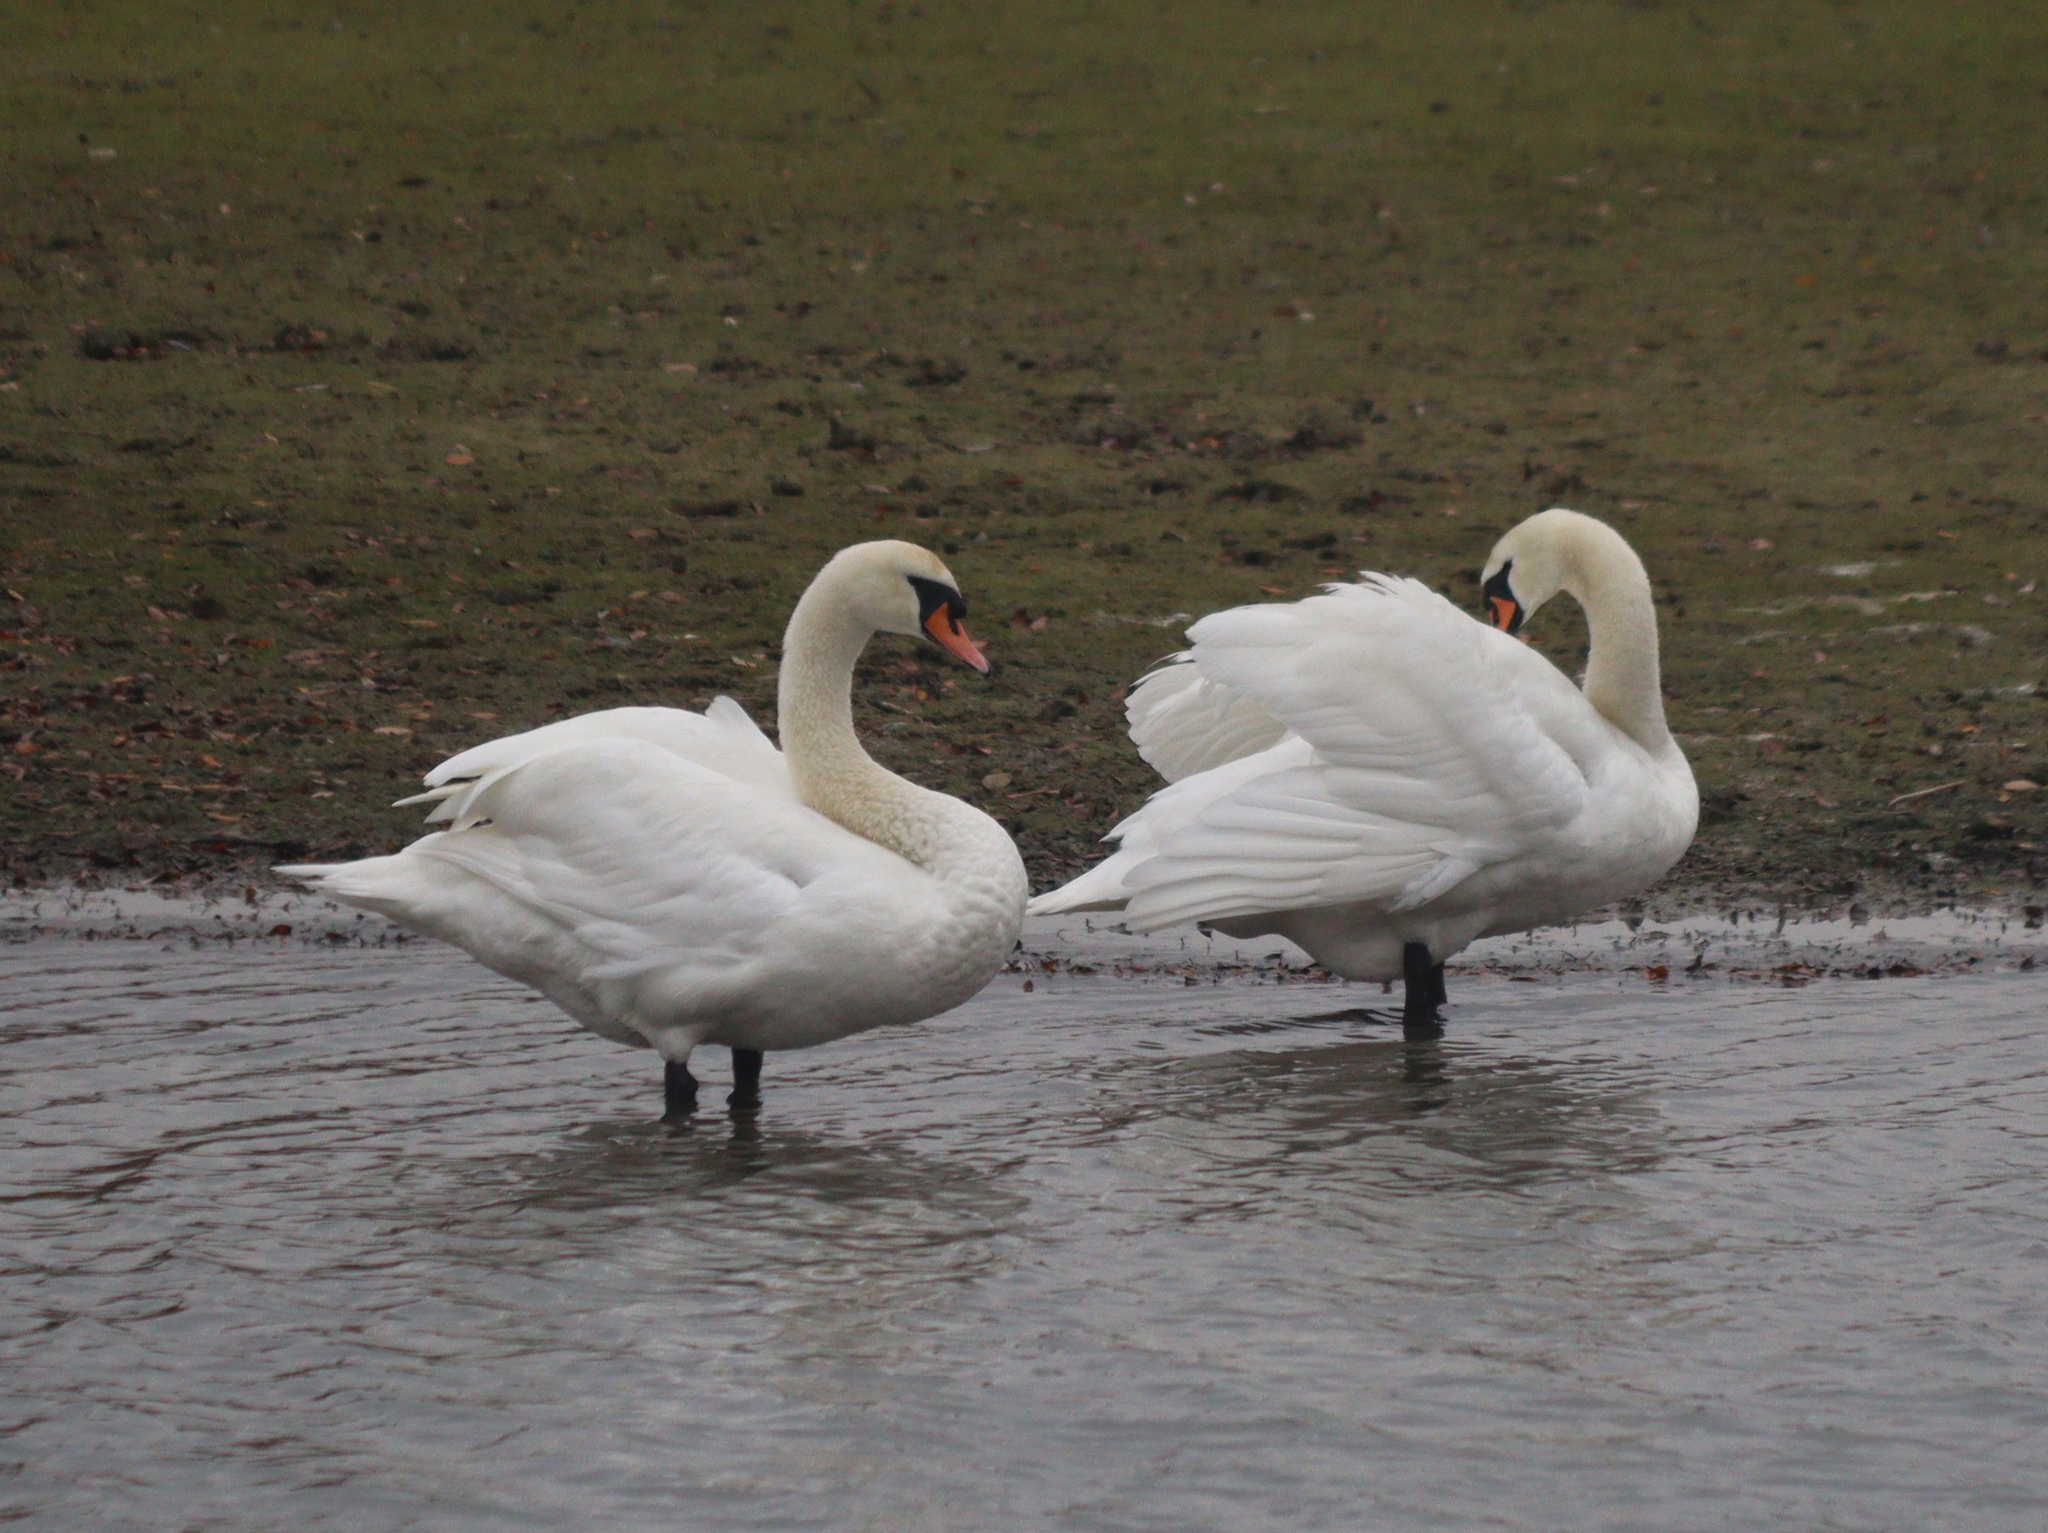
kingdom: Animalia
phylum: Chordata
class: Aves
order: Anseriformes
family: Anatidae
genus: Cygnus
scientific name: Cygnus olor
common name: Mute swan
